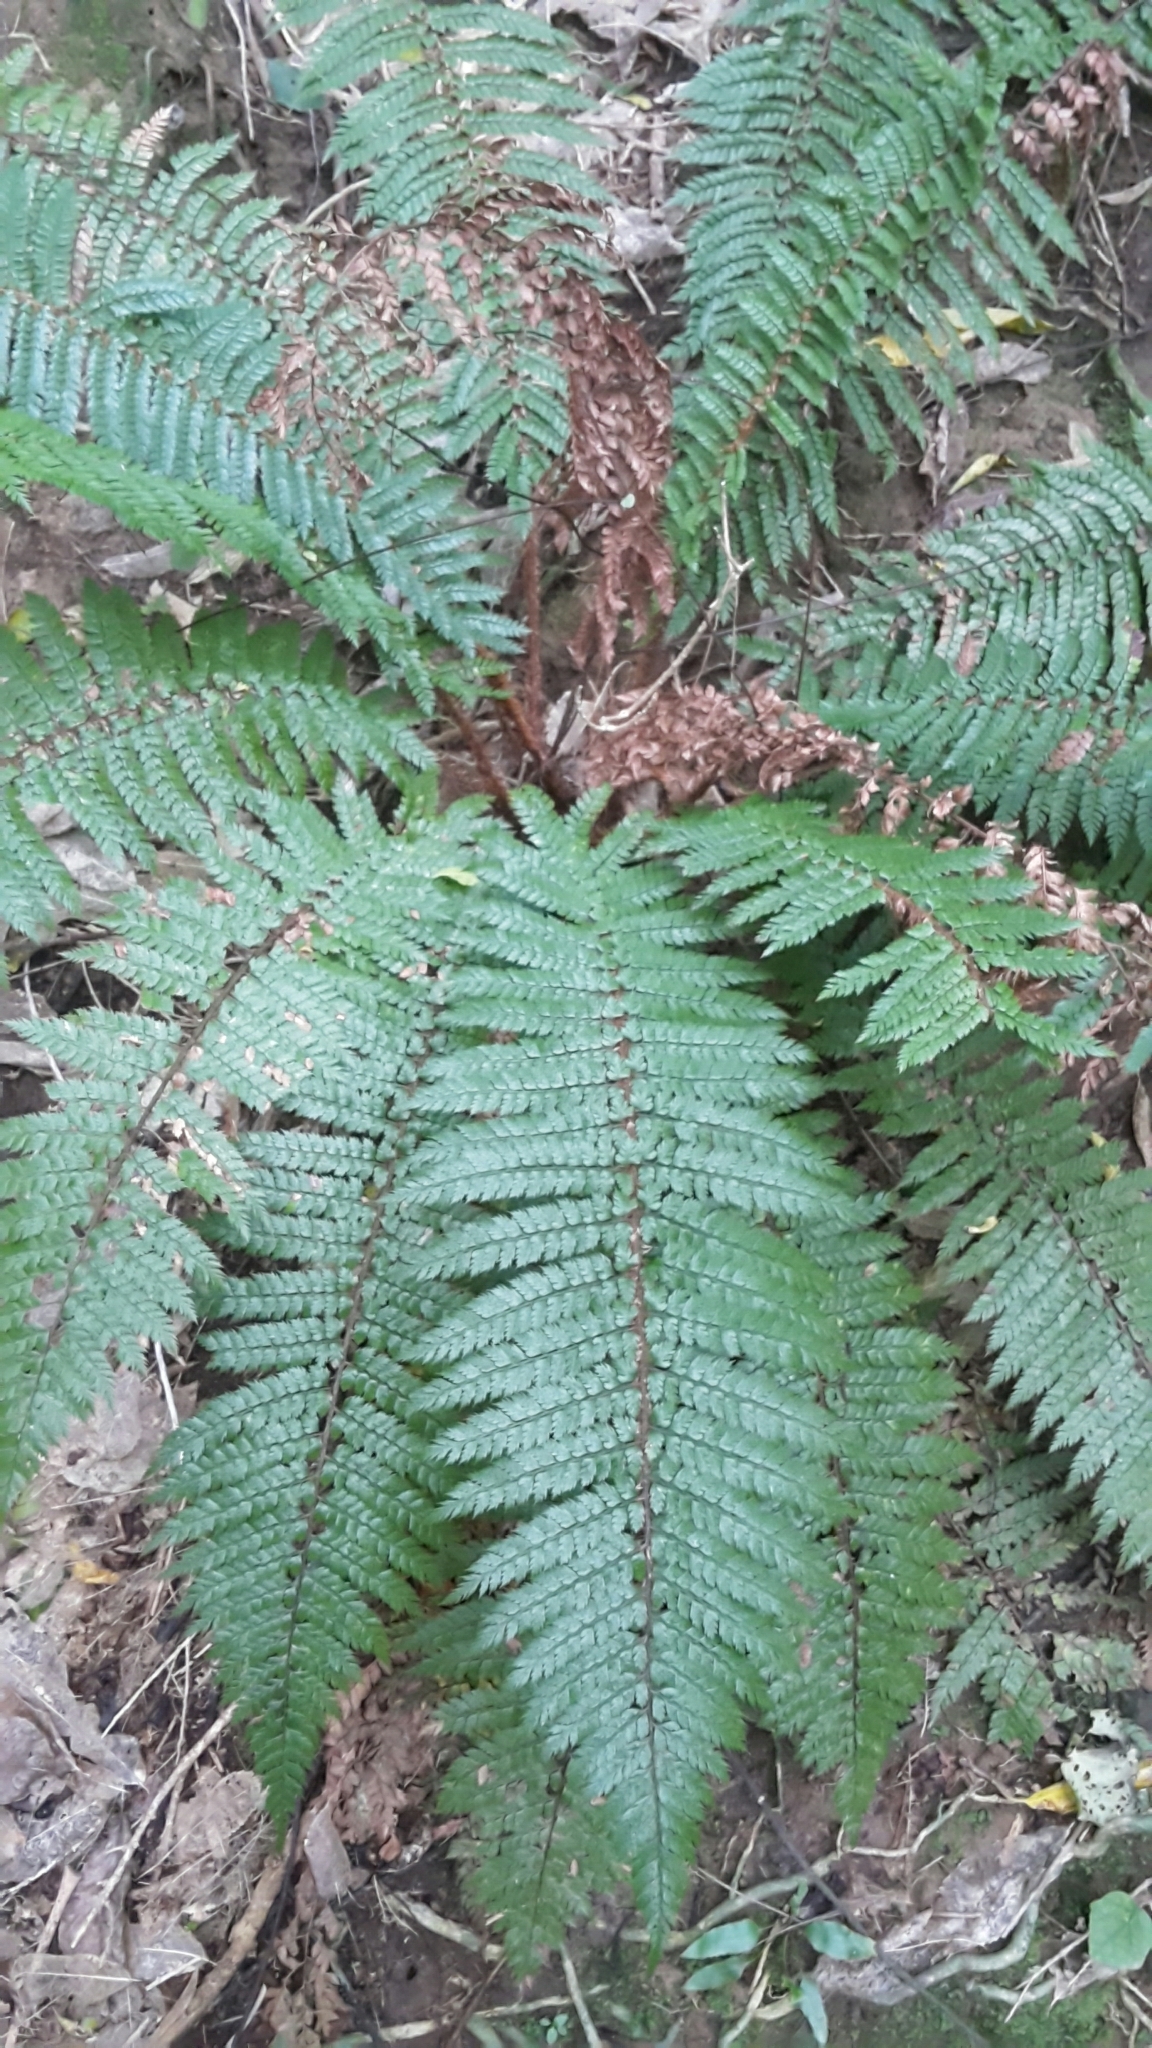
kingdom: Plantae
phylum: Tracheophyta
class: Polypodiopsida
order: Polypodiales
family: Dryopteridaceae
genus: Polystichum
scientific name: Polystichum vestitum
